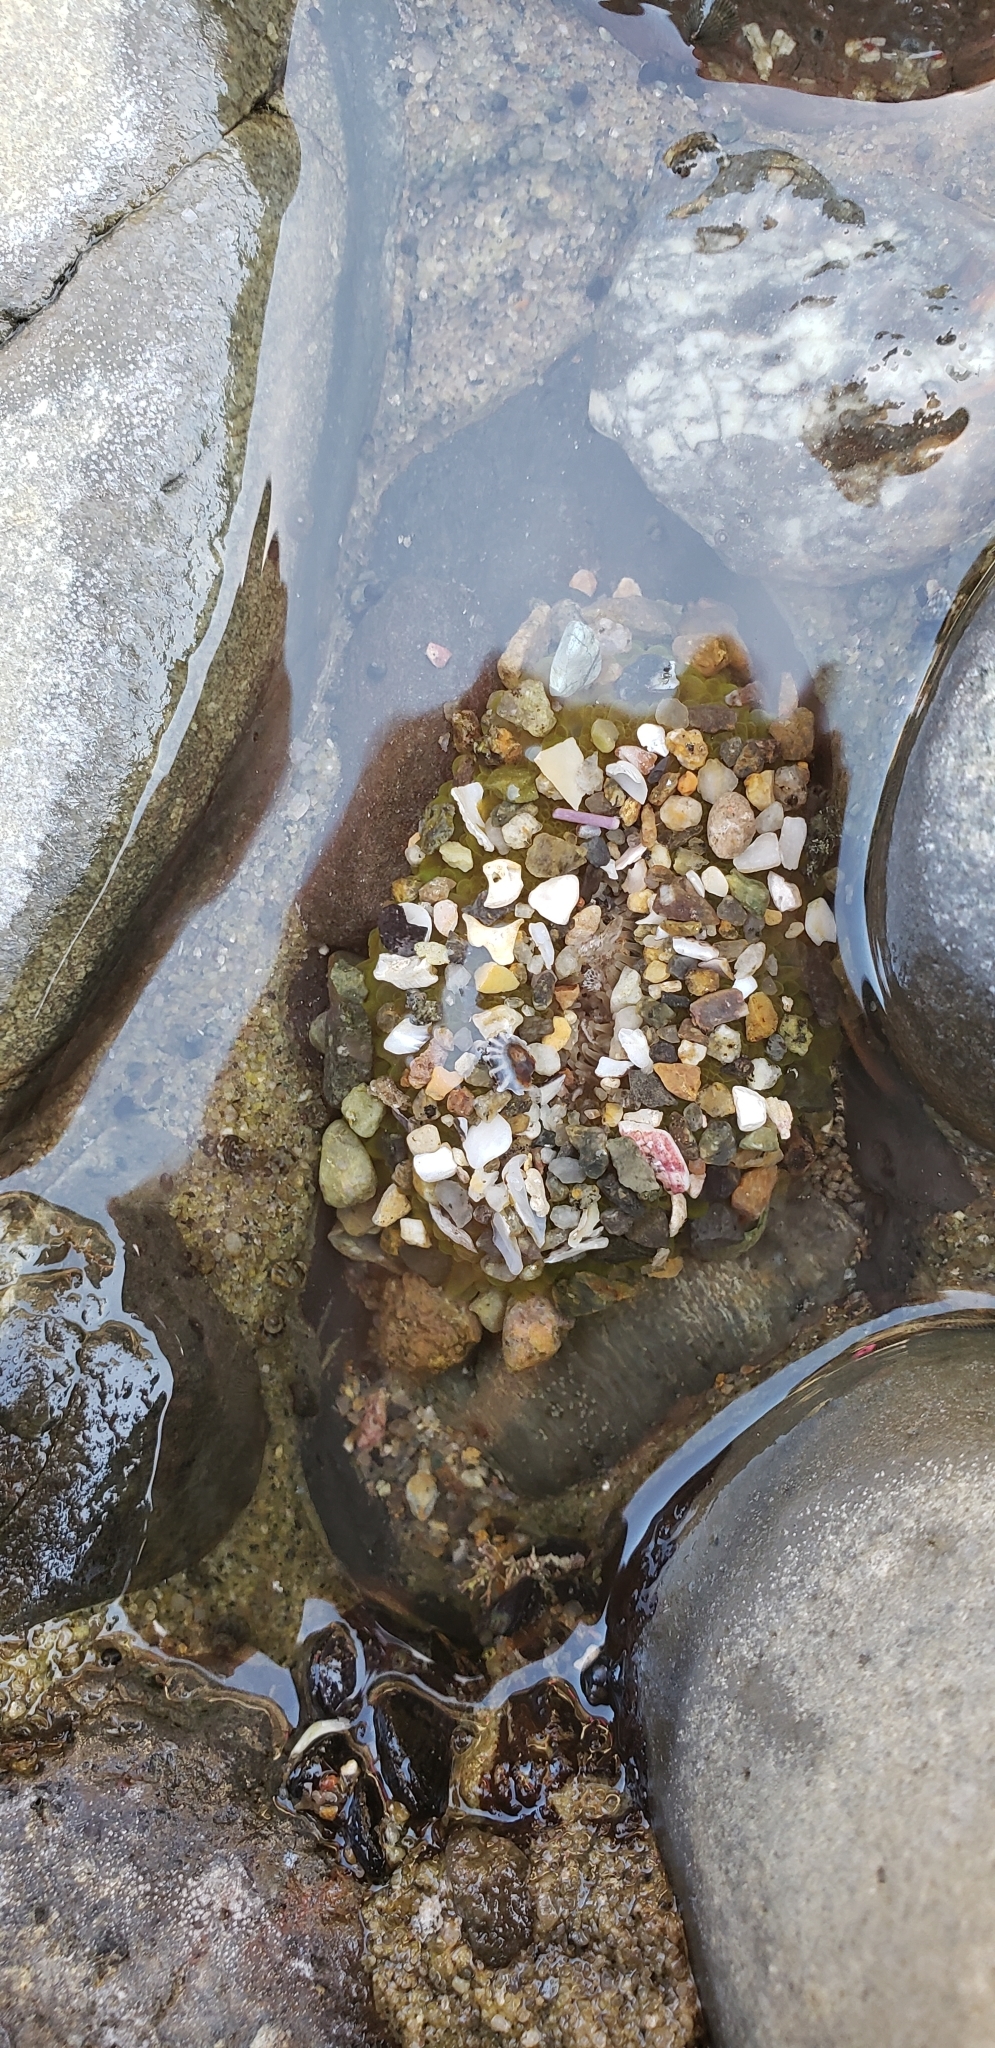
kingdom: Animalia
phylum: Cnidaria
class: Anthozoa
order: Actiniaria
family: Actiniidae
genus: Anthopleura
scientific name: Anthopleura elegantissima
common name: Clonal anemone
